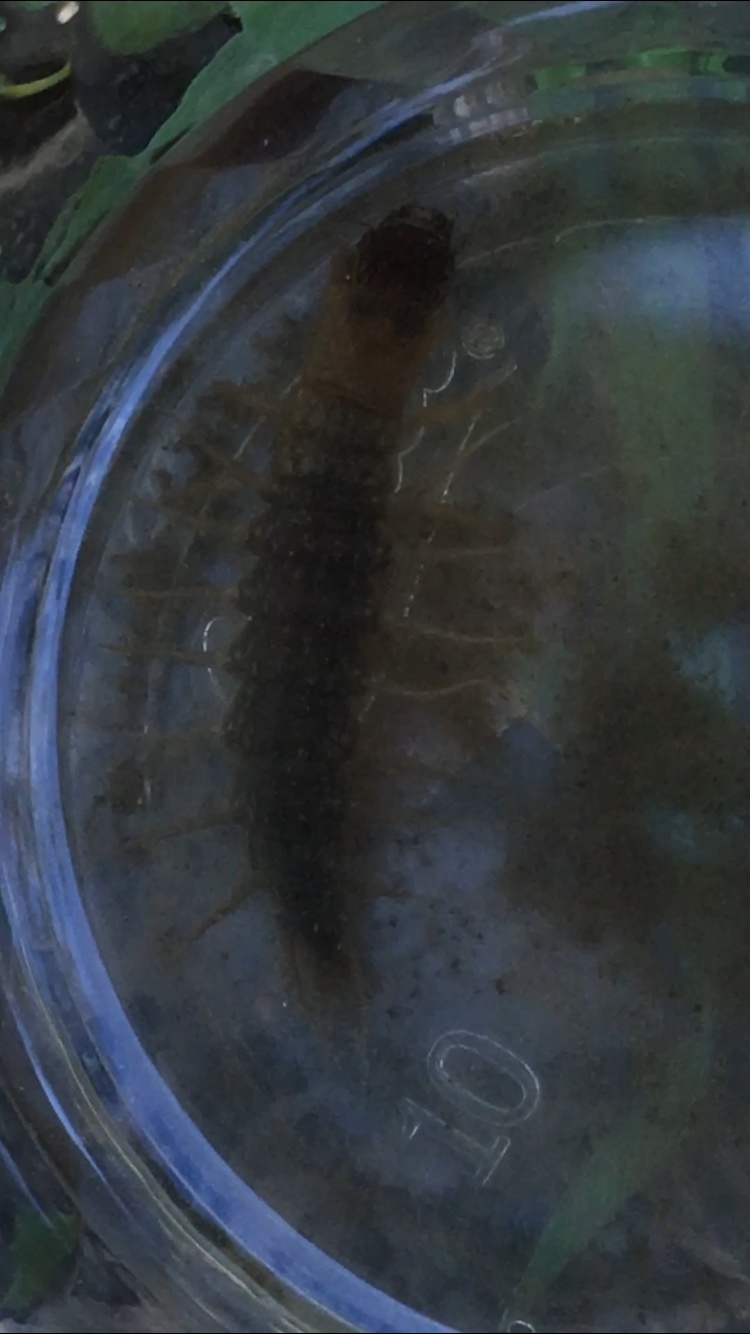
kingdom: Animalia
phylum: Arthropoda
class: Insecta
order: Megaloptera
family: Corydalidae
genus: Neohermes
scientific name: Neohermes filicornis
